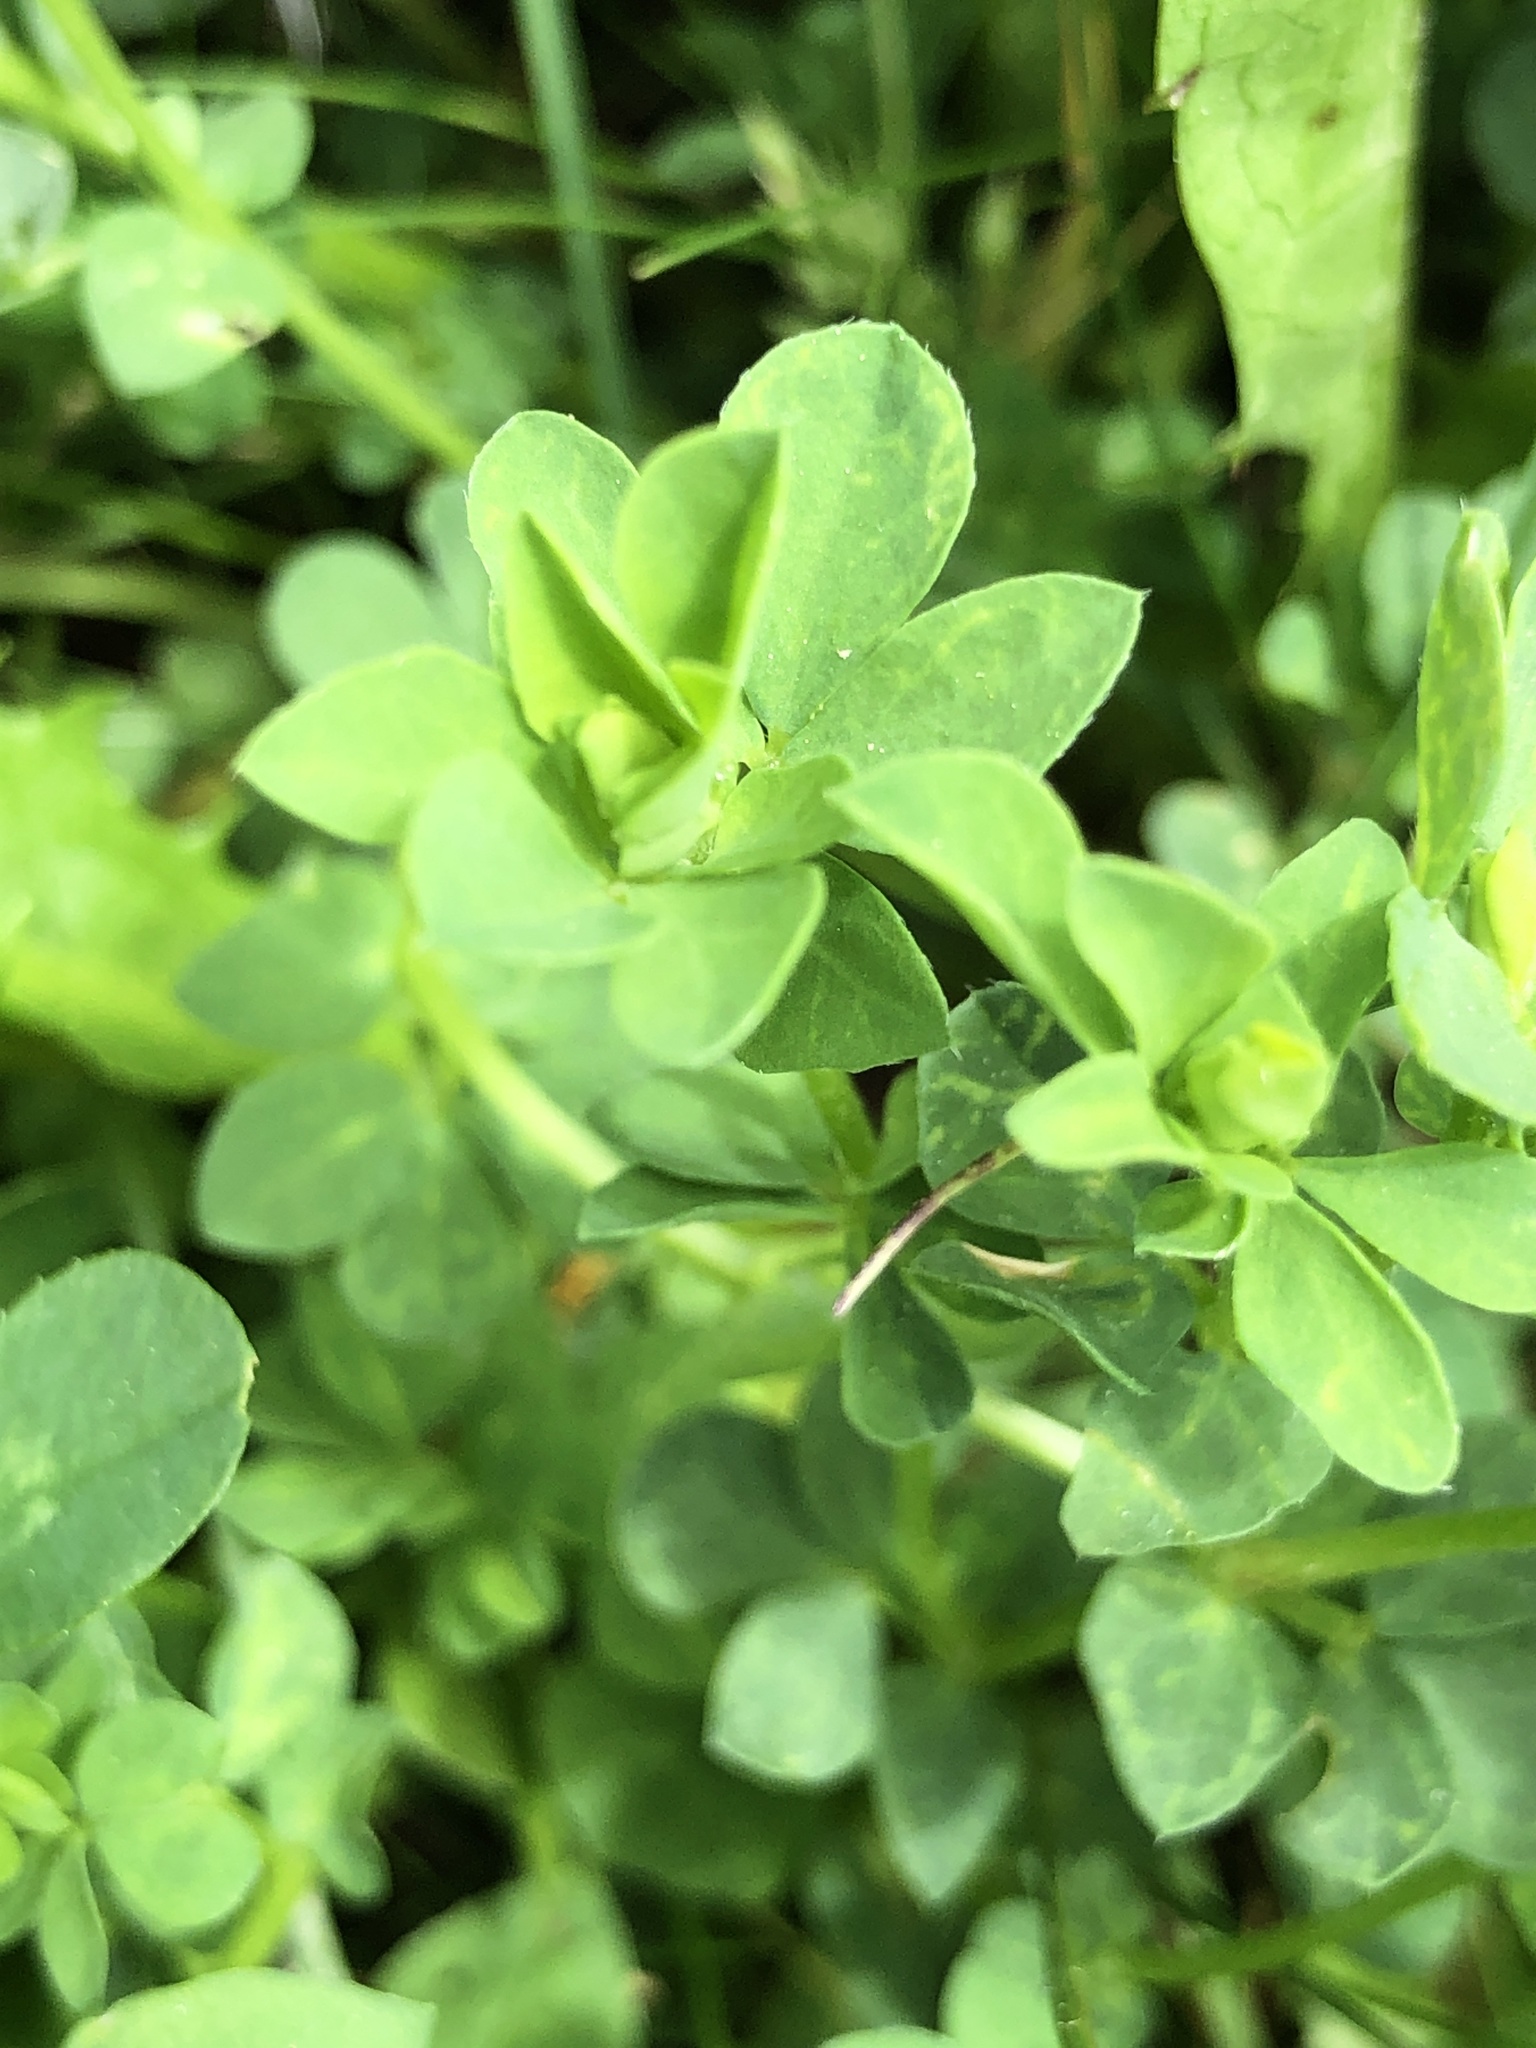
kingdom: Plantae
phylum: Tracheophyta
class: Magnoliopsida
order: Fabales
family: Fabaceae
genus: Lotus
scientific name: Lotus corniculatus
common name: Common bird's-foot-trefoil
